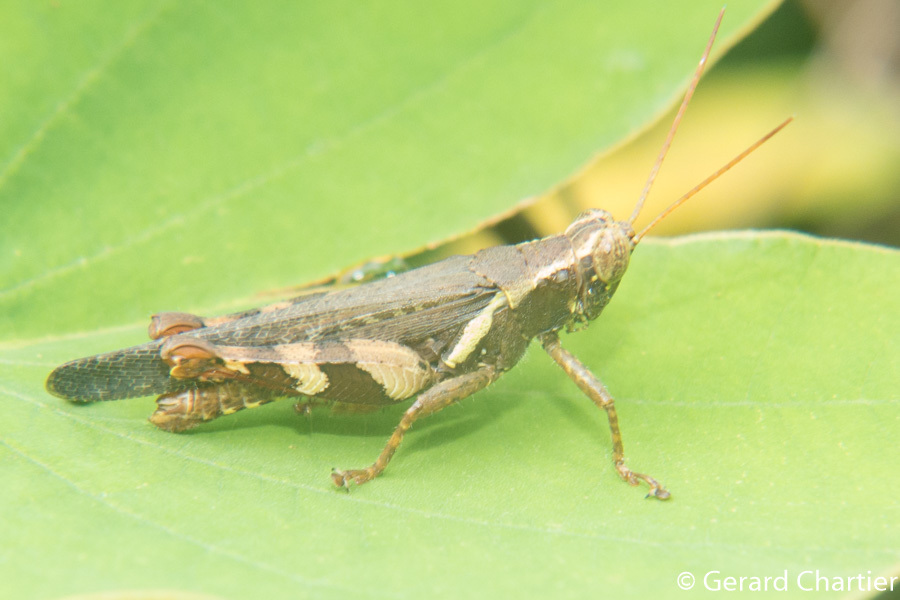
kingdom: Animalia
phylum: Arthropoda
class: Insecta
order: Orthoptera
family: Acrididae
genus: Xenocatantops
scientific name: Xenocatantops humile
